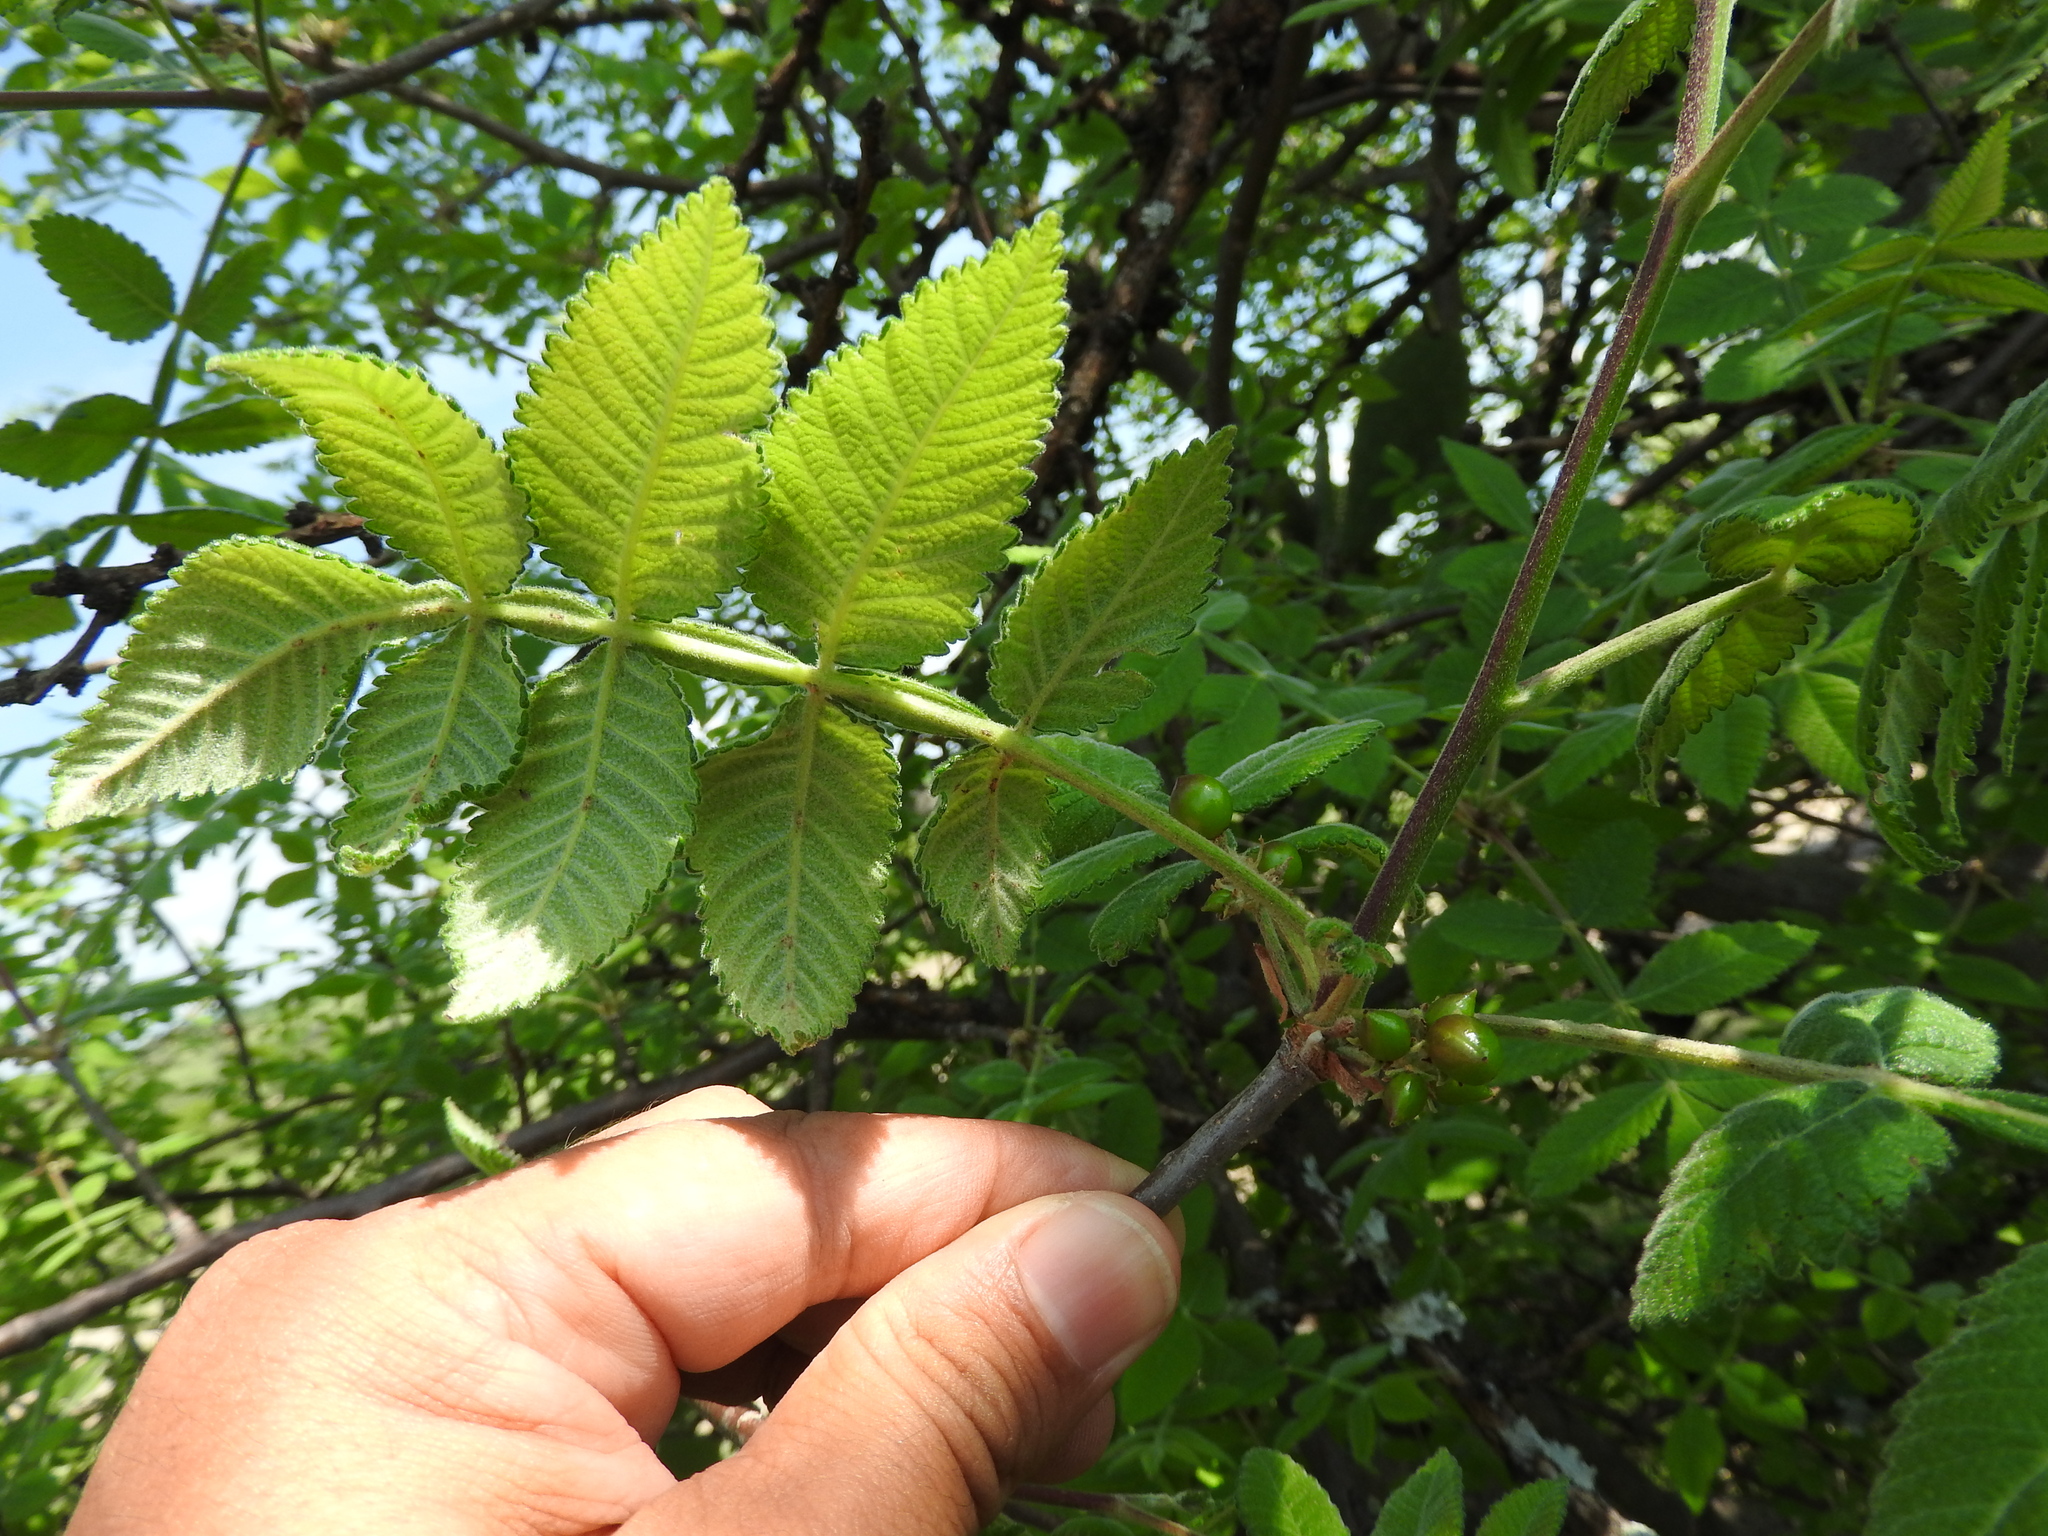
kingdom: Plantae
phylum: Tracheophyta
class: Magnoliopsida
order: Sapindales
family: Burseraceae
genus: Bursera
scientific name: Bursera cuneata
